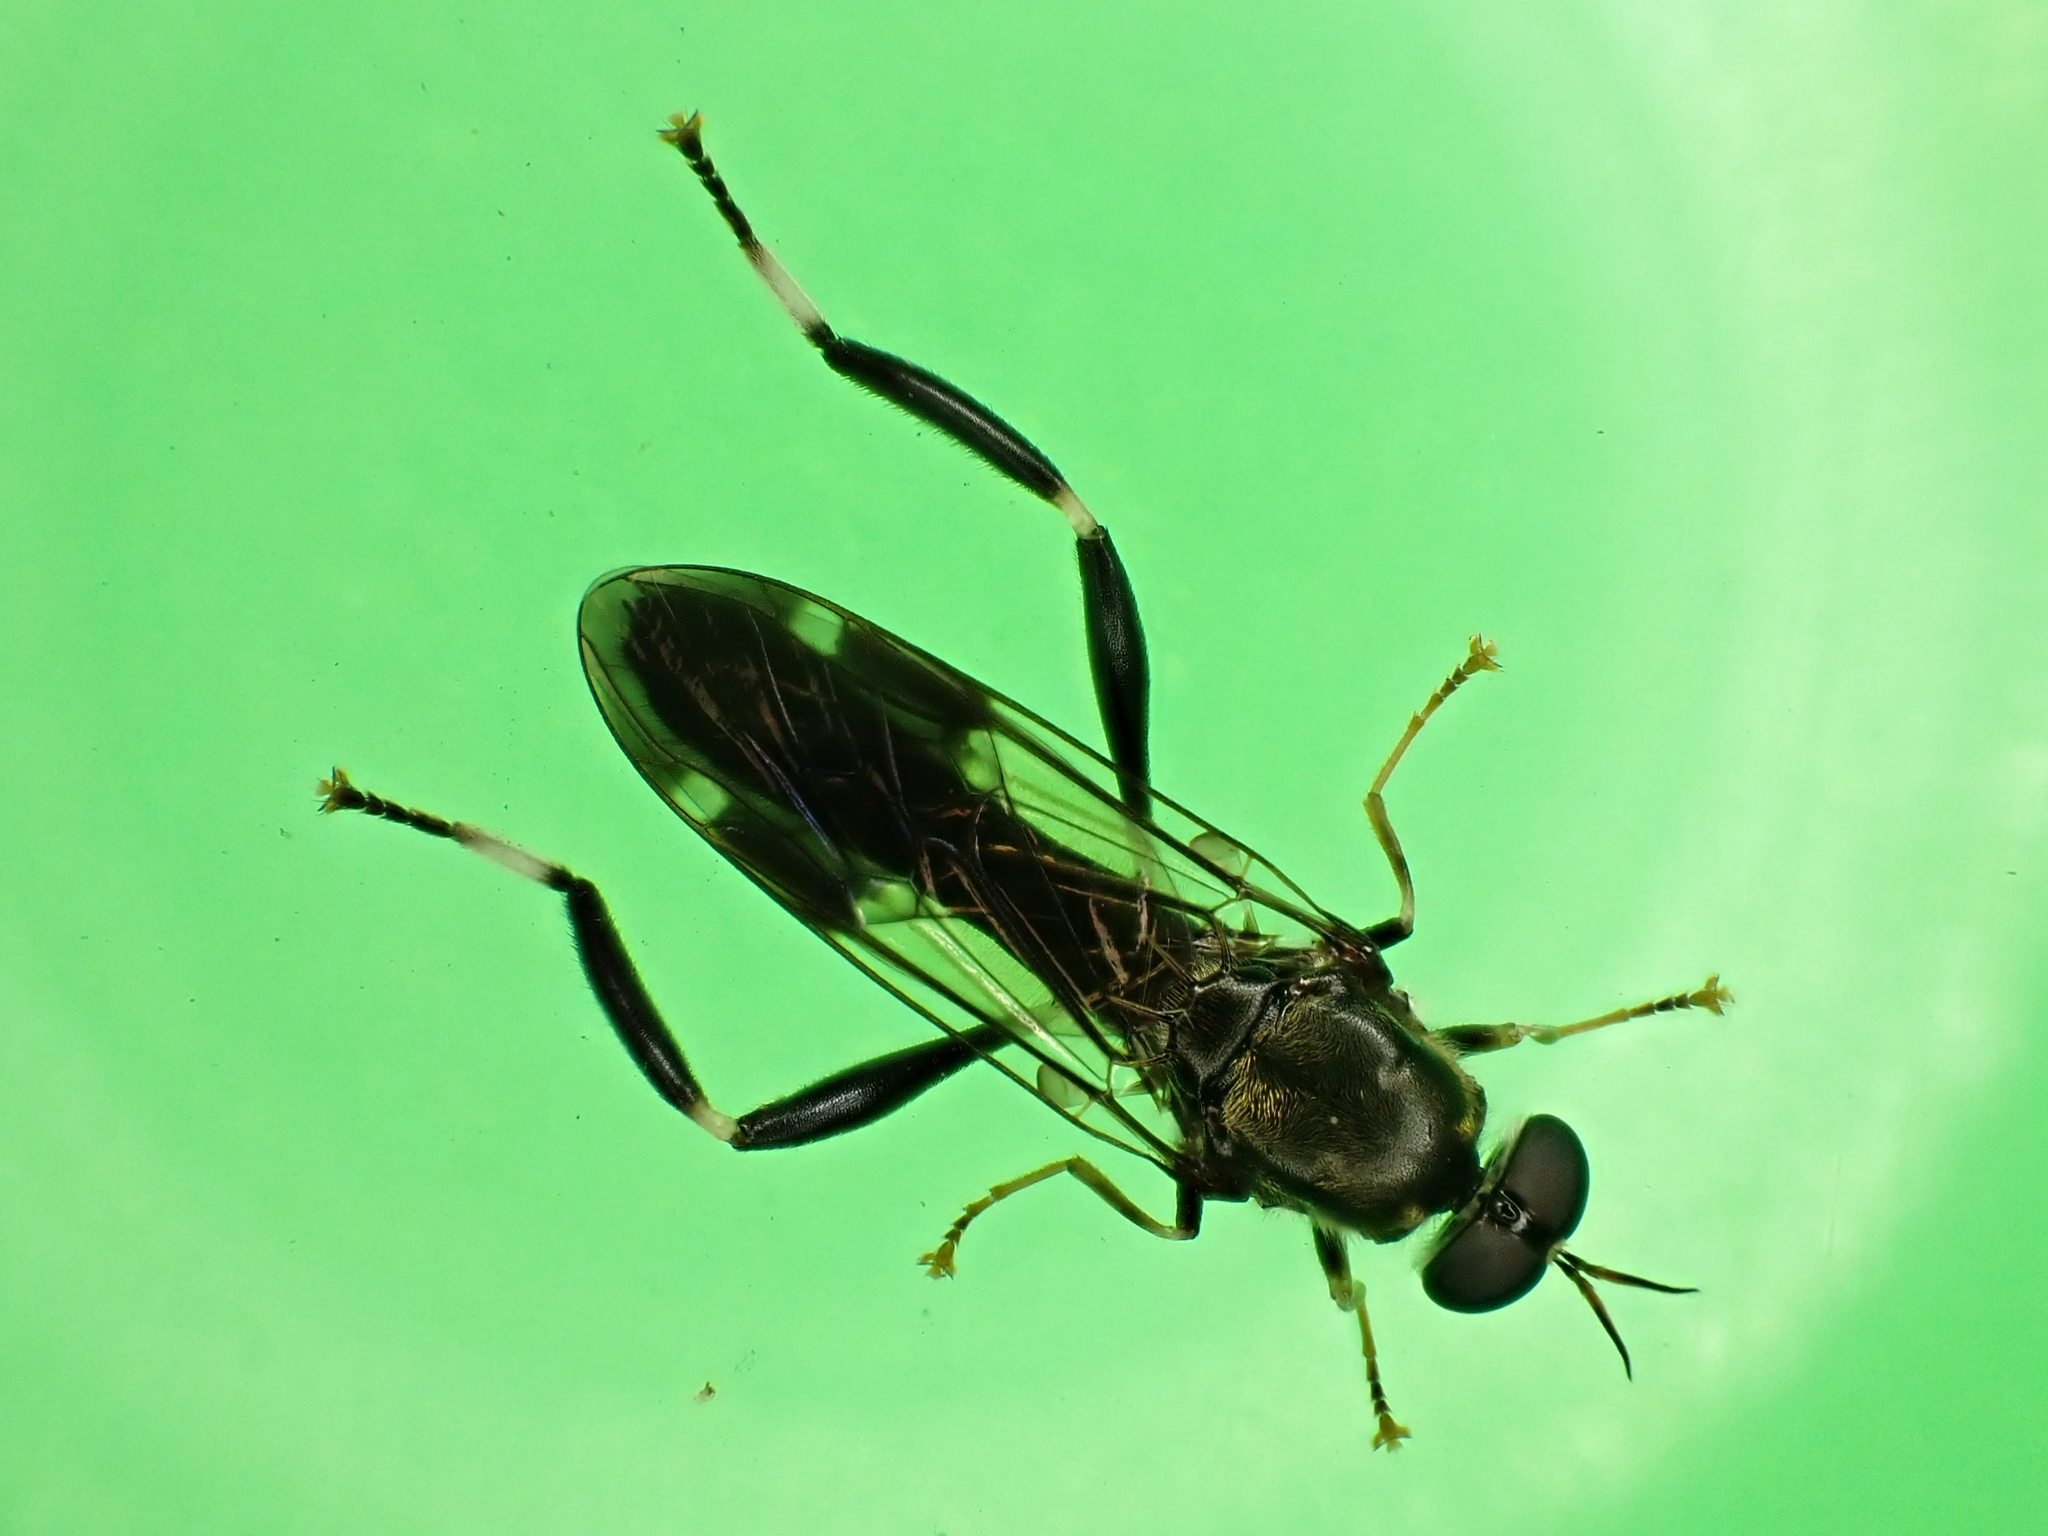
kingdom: Animalia
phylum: Arthropoda
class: Insecta
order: Diptera
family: Stratiomyidae
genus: Exaireta
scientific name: Exaireta spinigera
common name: Blue soldier fly
